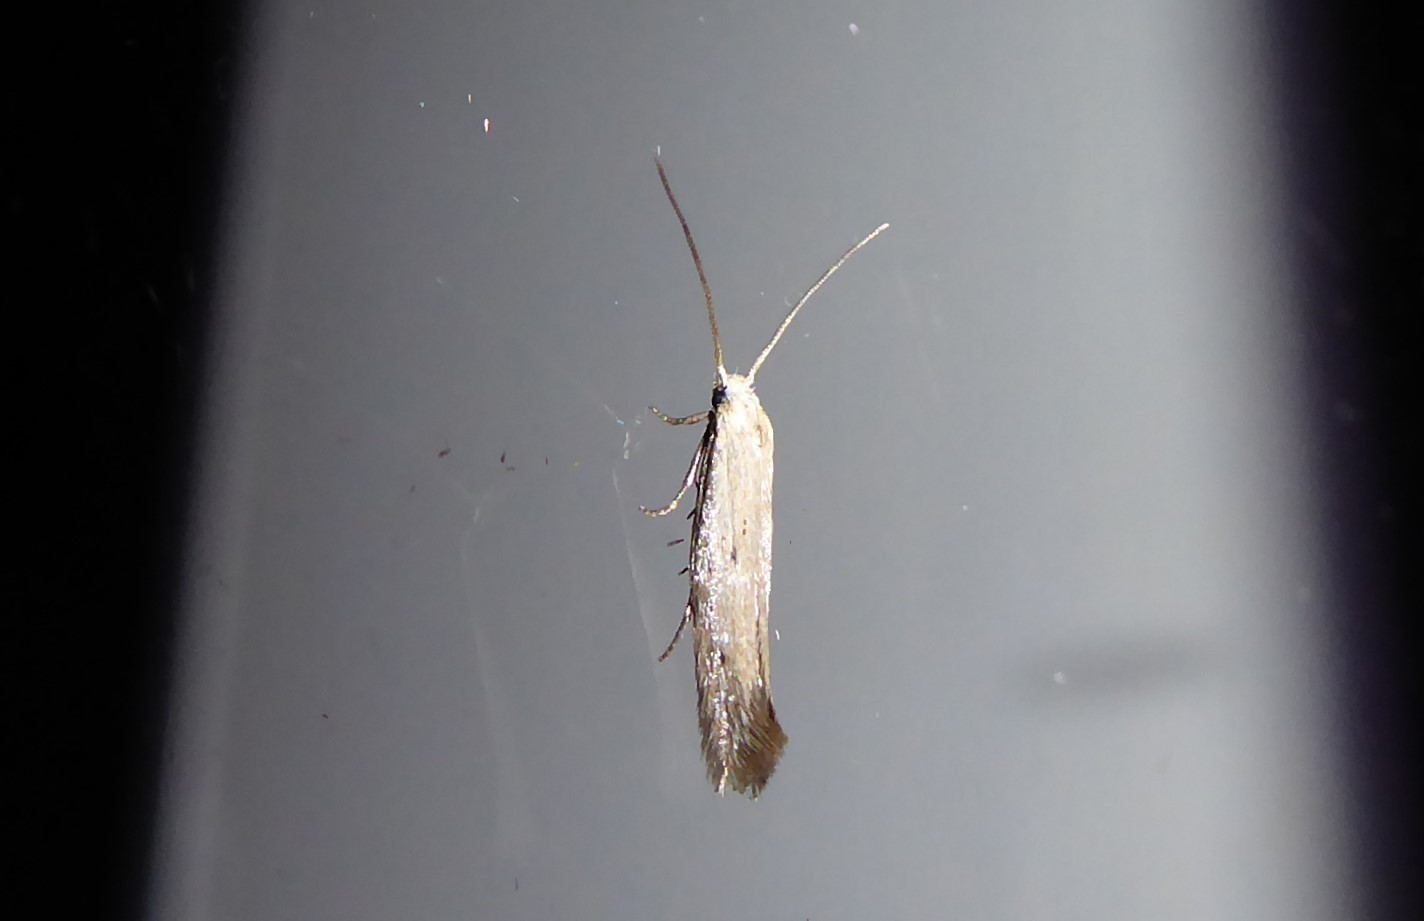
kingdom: Animalia
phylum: Arthropoda
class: Insecta
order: Lepidoptera
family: Elachistidae
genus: Elachista
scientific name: Elachista gerasmia
